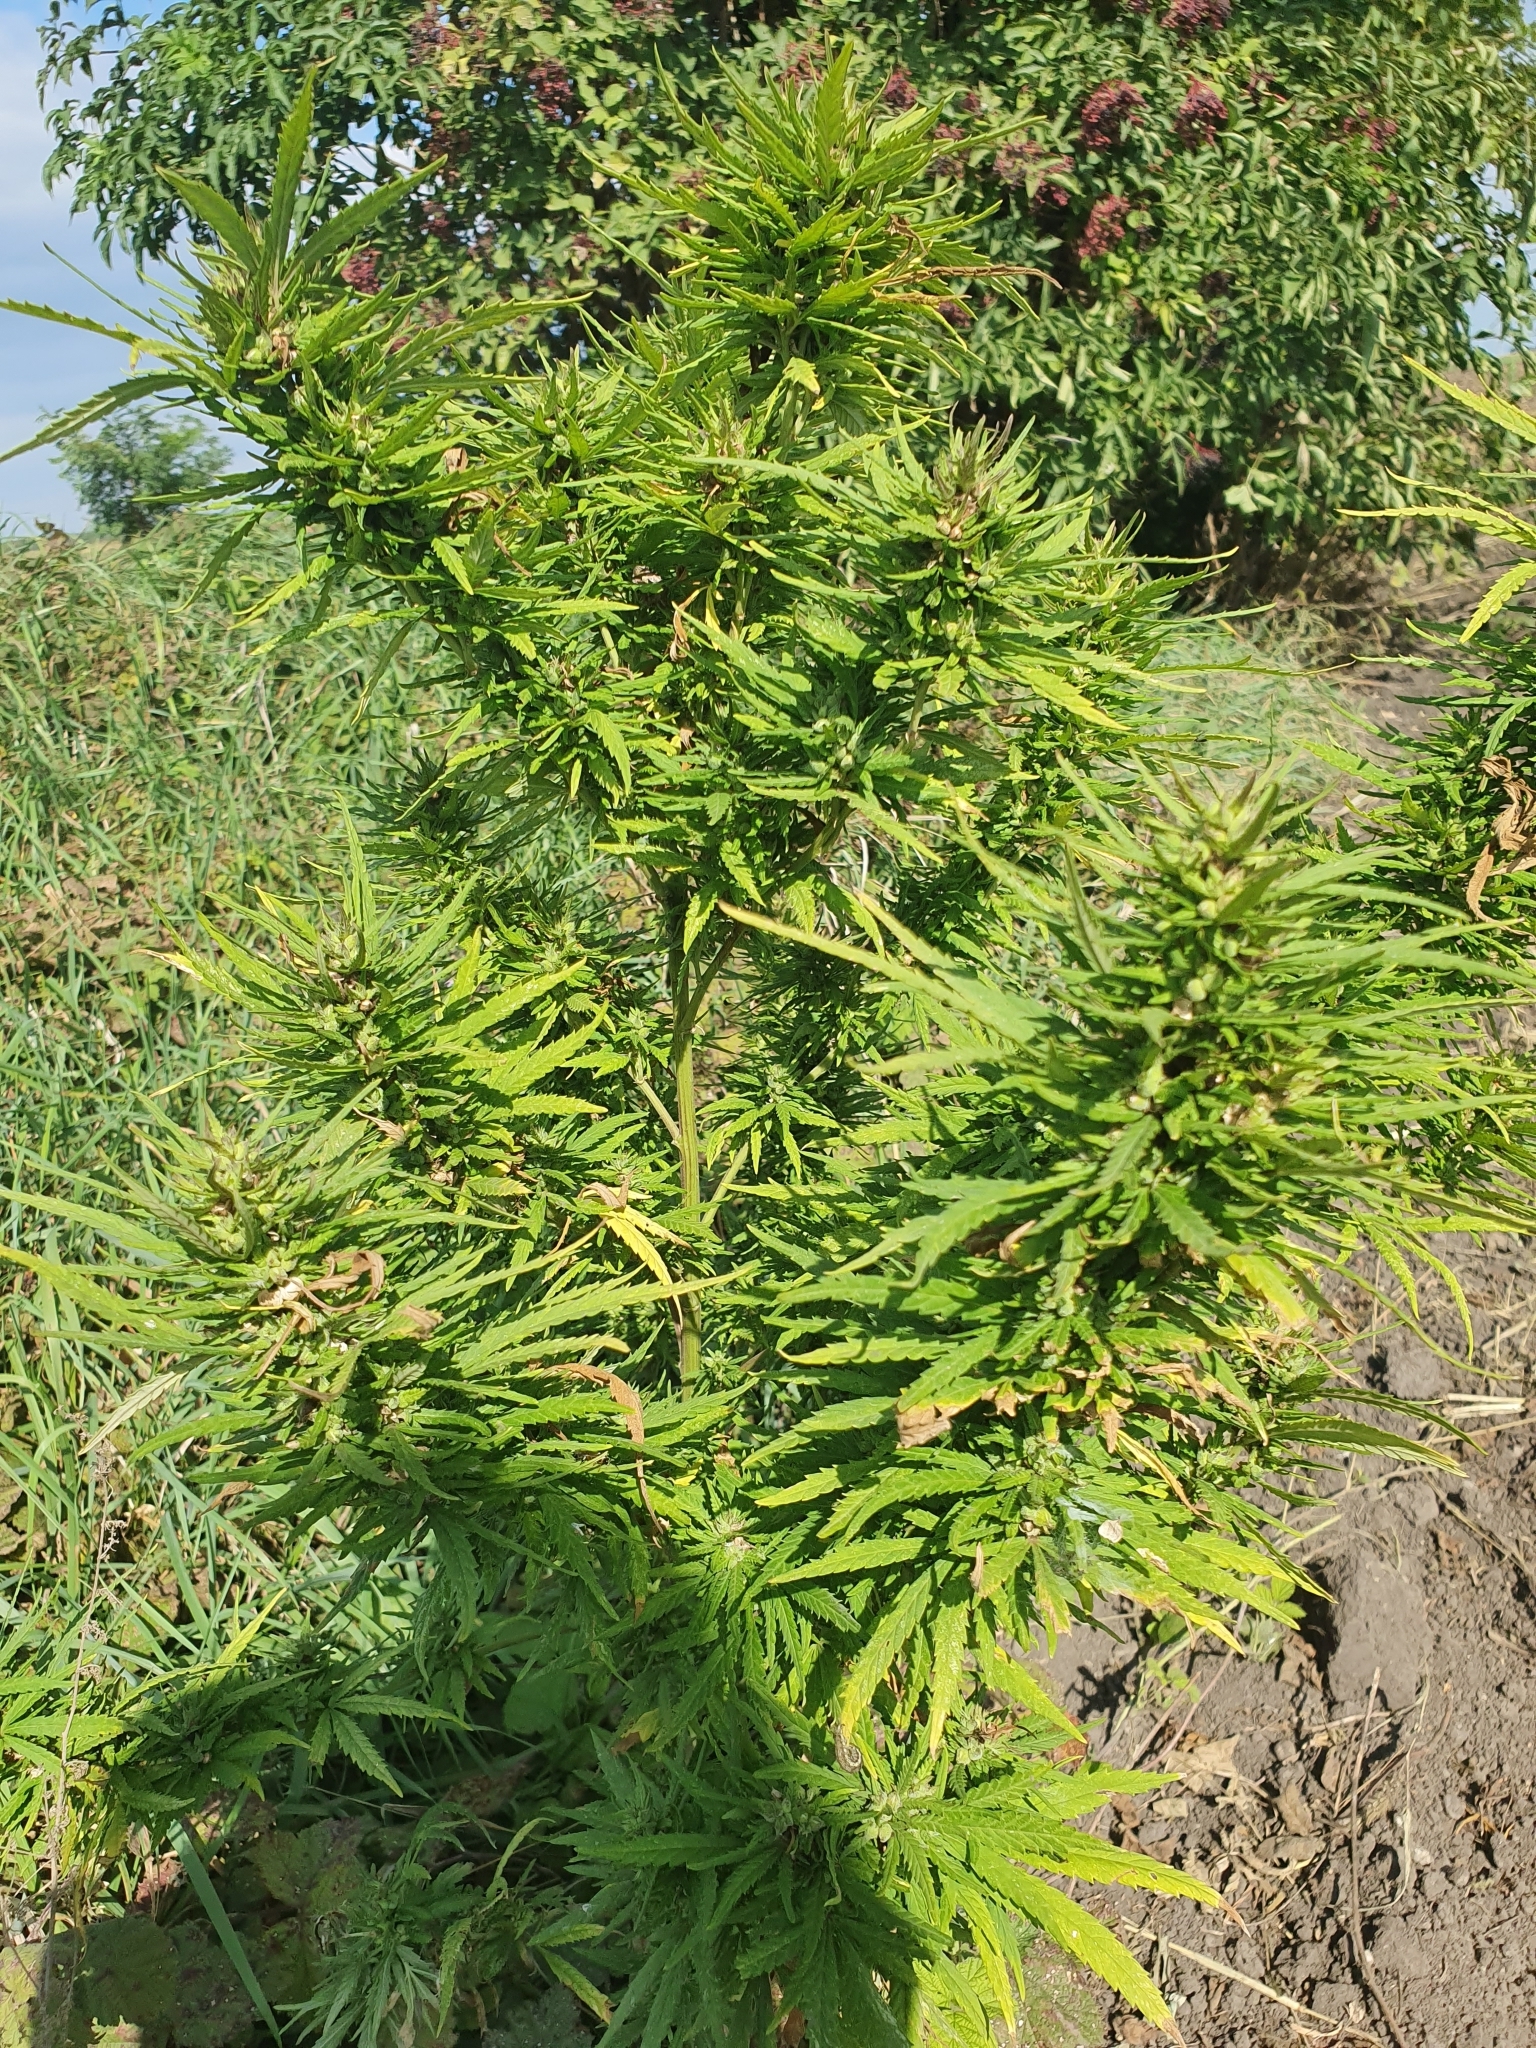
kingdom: Plantae
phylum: Tracheophyta
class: Magnoliopsida
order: Rosales
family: Cannabaceae
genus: Cannabis
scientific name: Cannabis sativa
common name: Hemp
